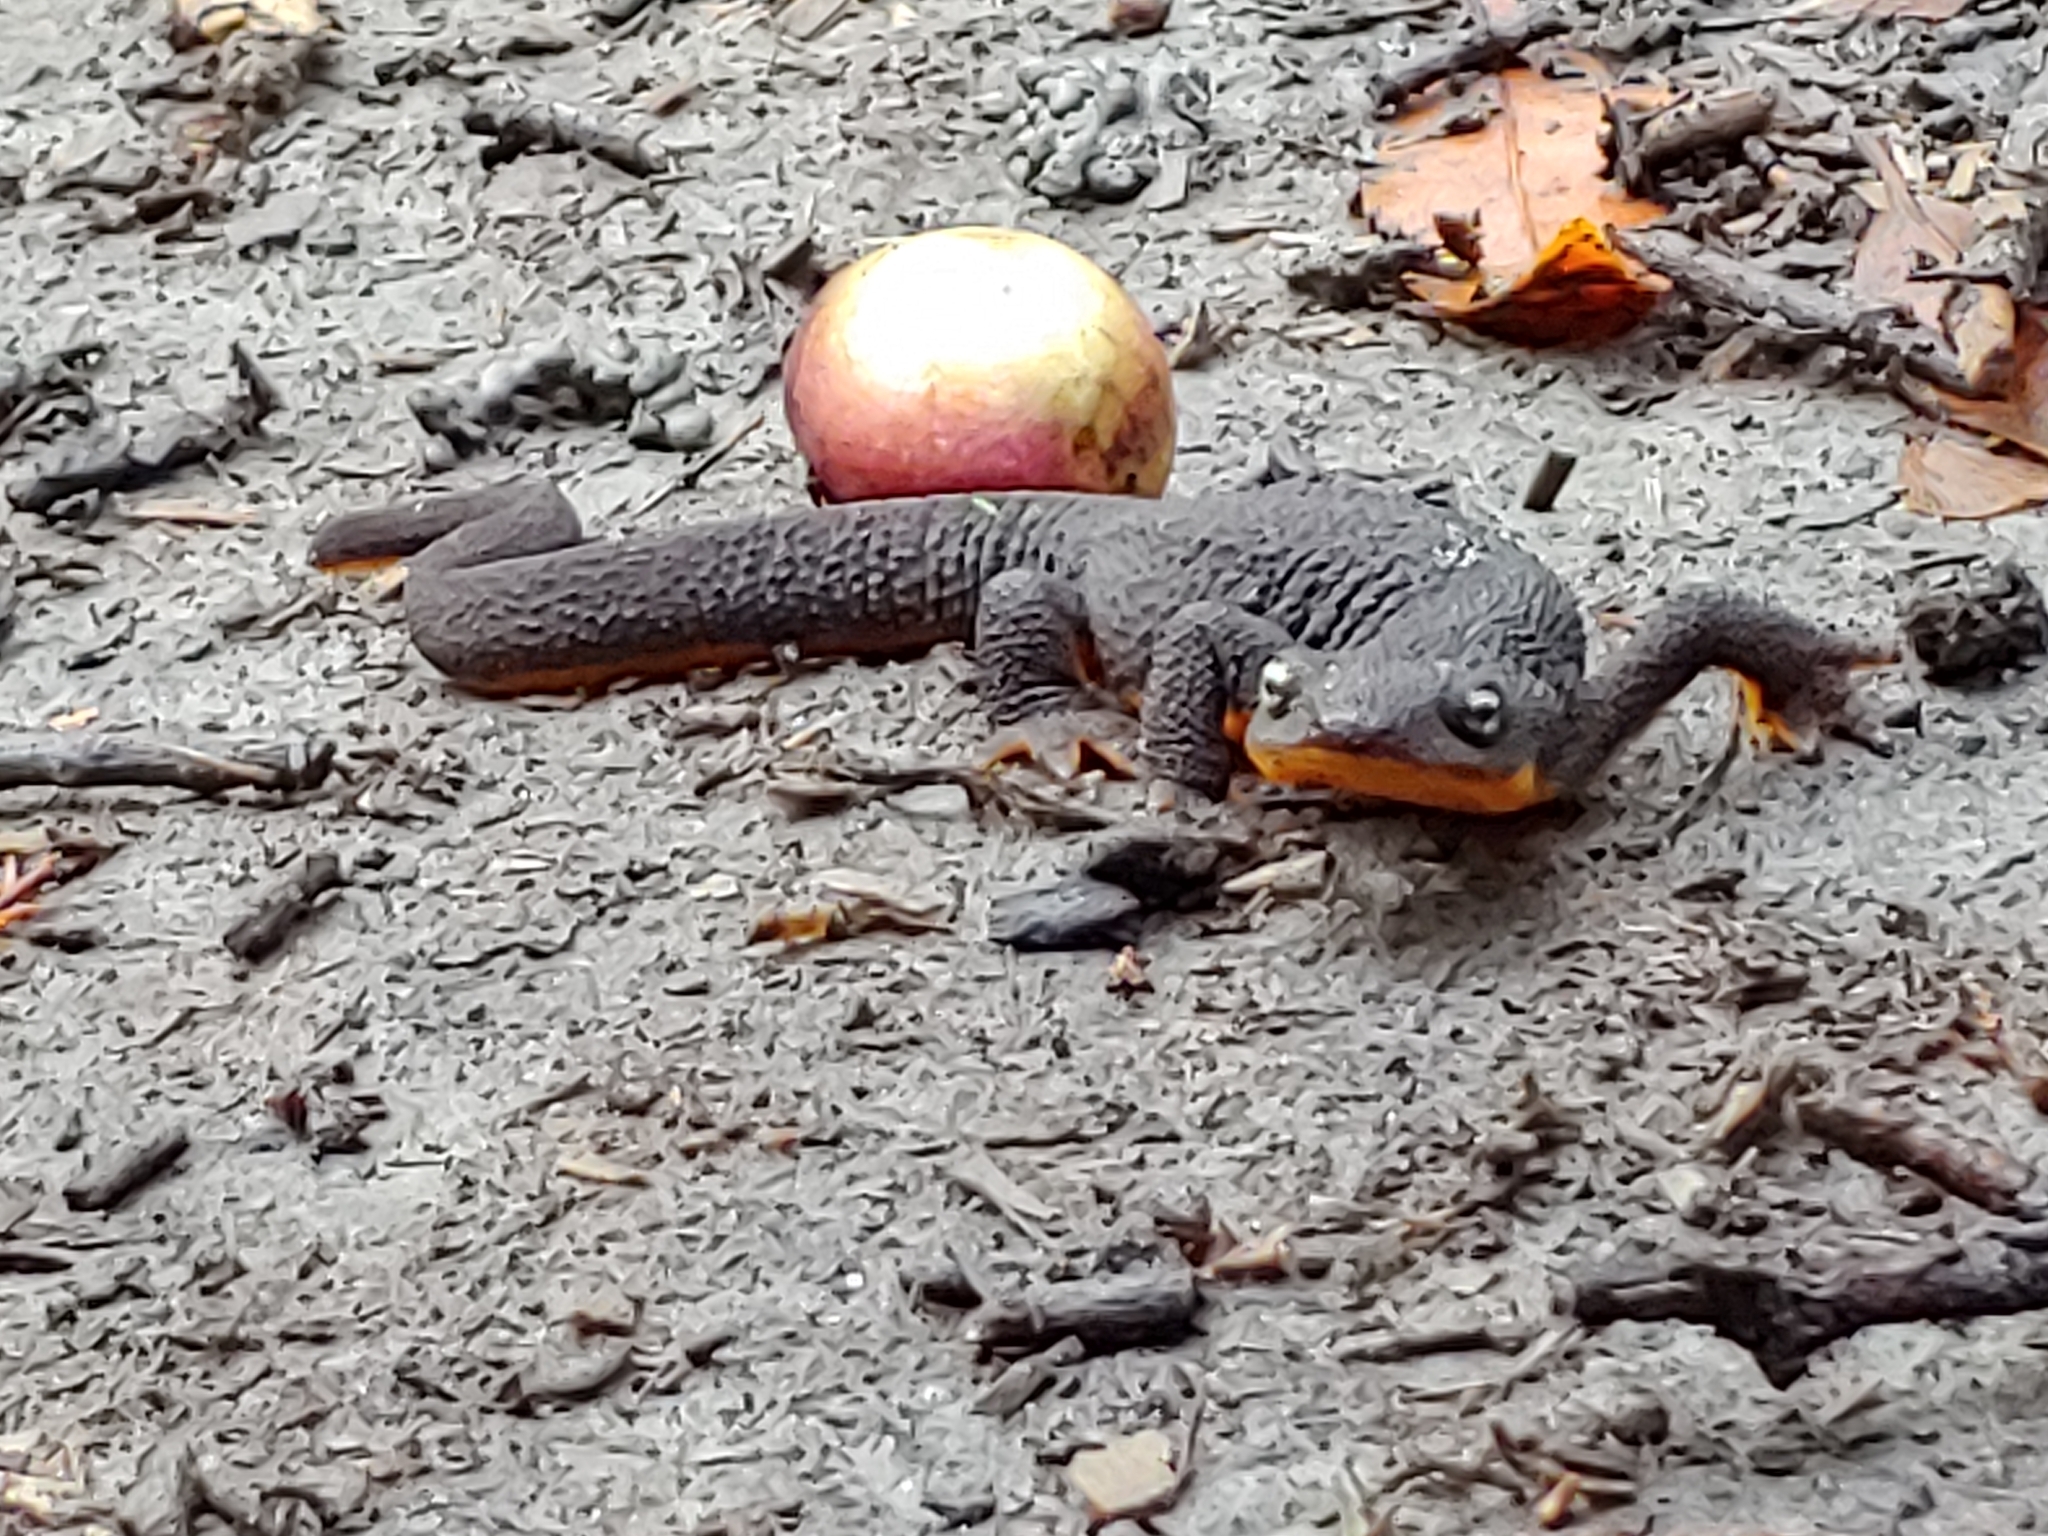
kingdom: Animalia
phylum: Chordata
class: Amphibia
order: Caudata
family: Salamandridae
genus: Taricha
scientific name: Taricha granulosa
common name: Roughskin newt
